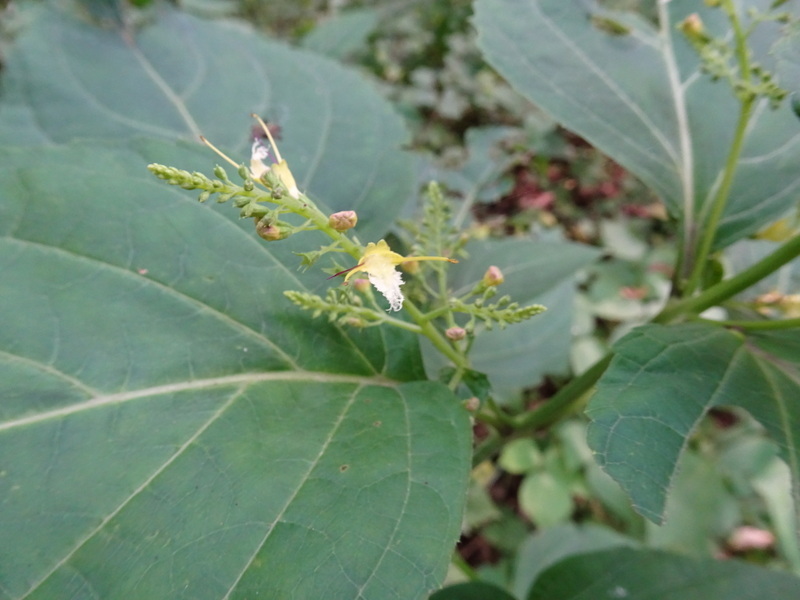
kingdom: Plantae
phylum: Tracheophyta
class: Magnoliopsida
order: Lamiales
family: Lamiaceae
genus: Collinsonia
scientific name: Collinsonia canadensis
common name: Northern horsebalm
